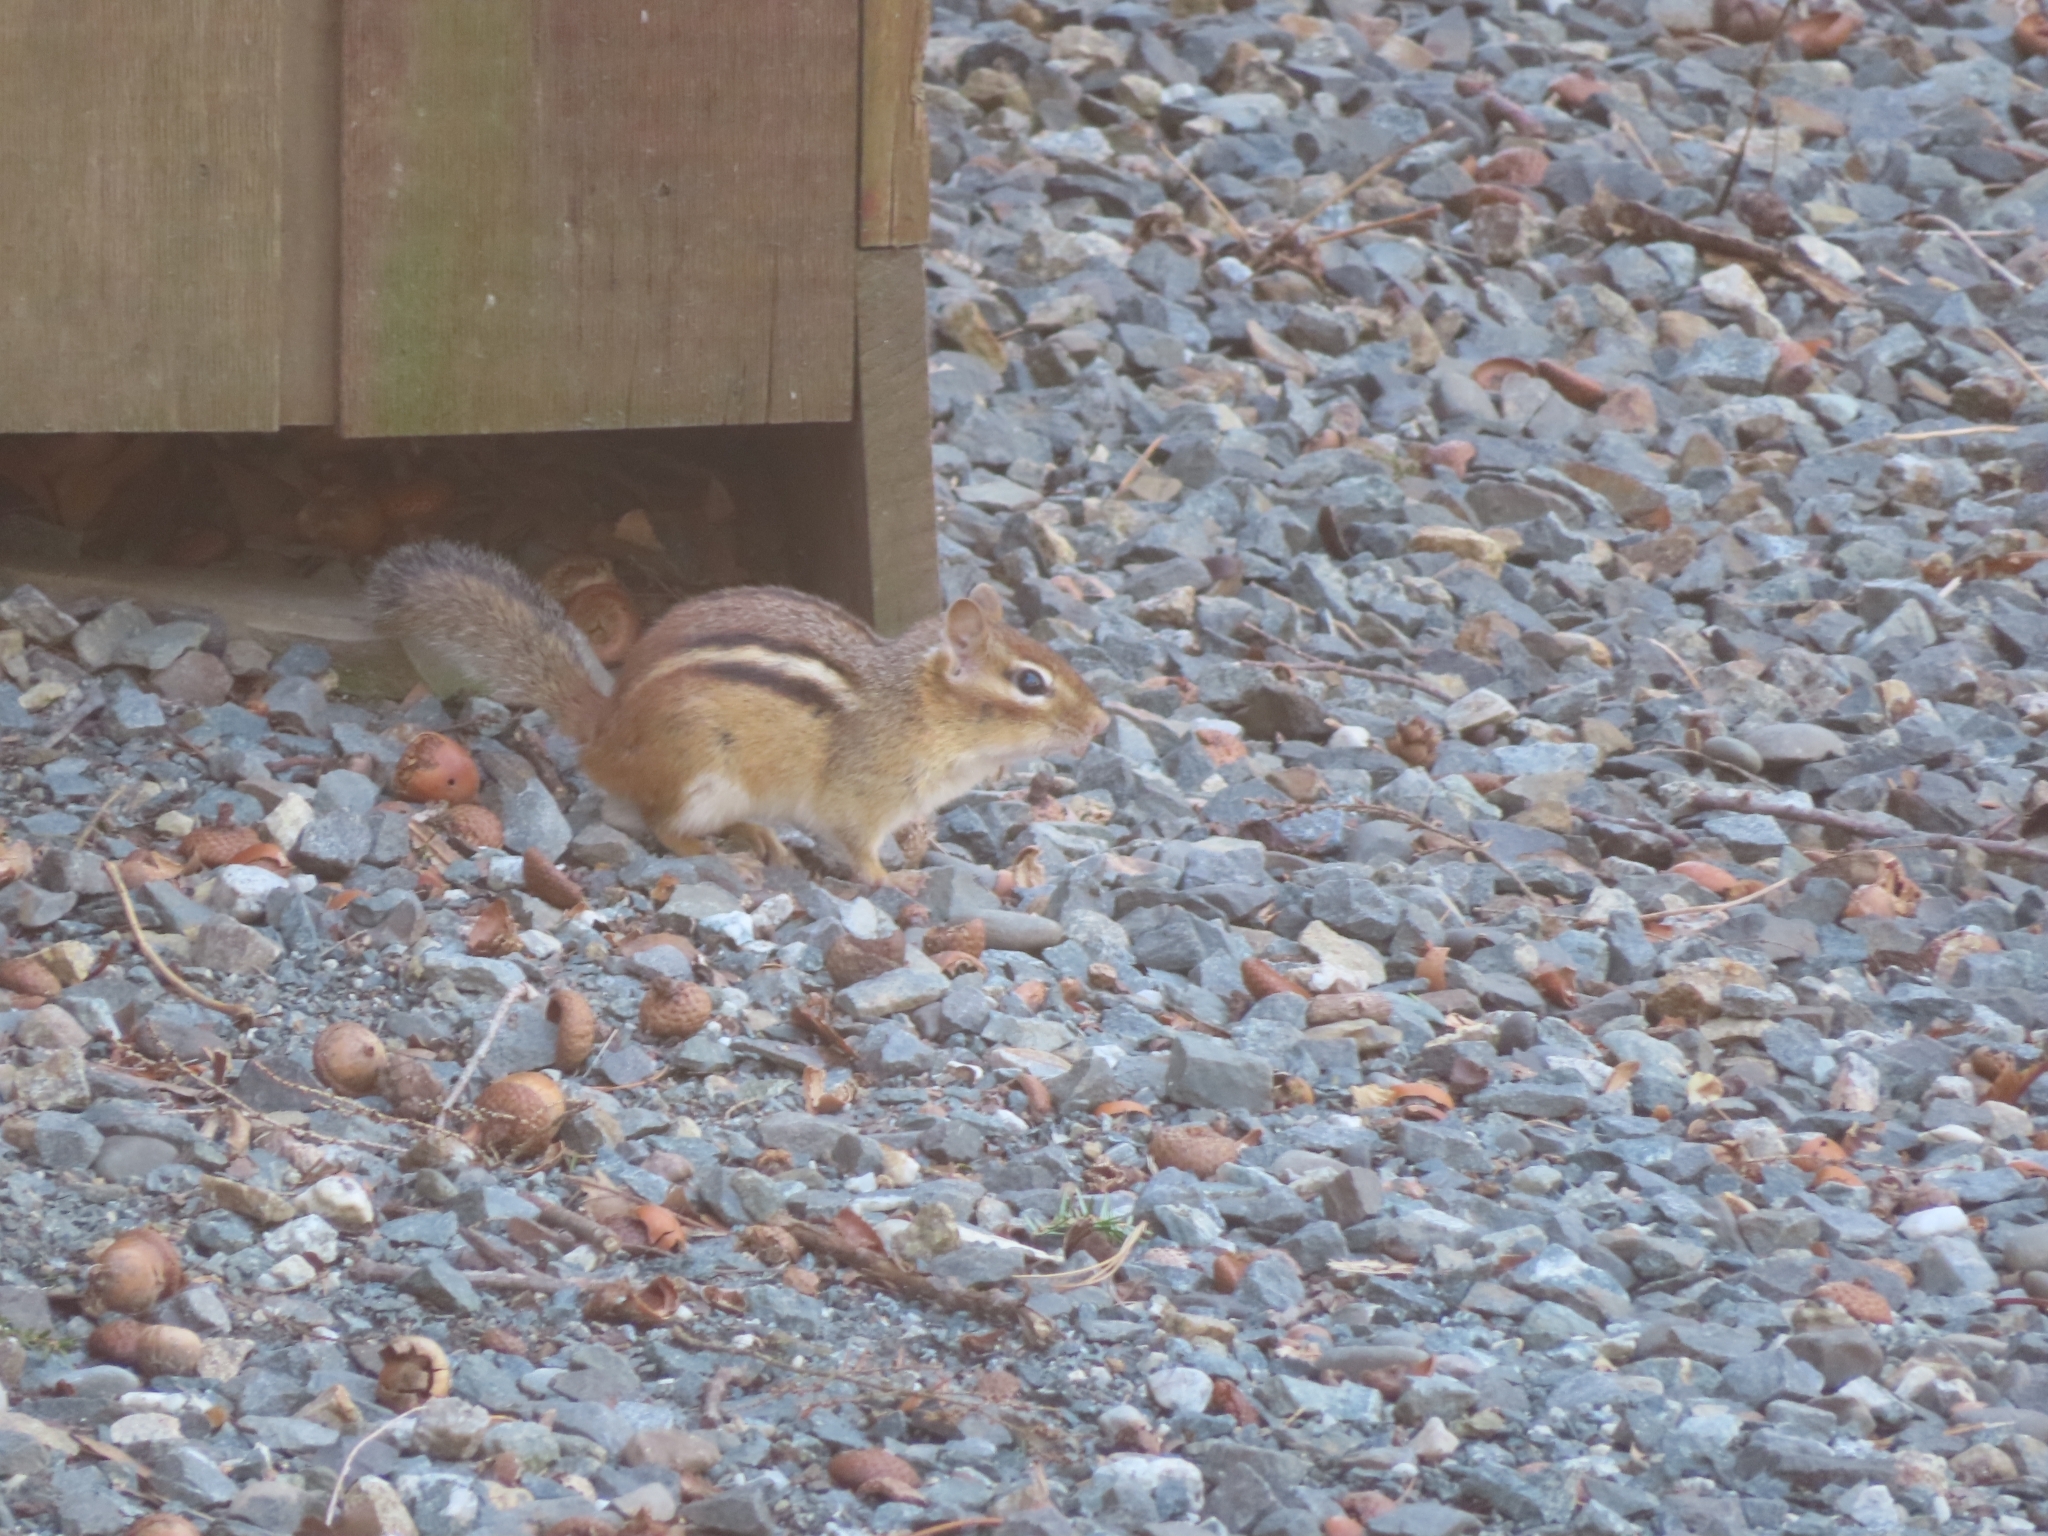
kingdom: Animalia
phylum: Chordata
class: Mammalia
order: Rodentia
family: Sciuridae
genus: Tamias
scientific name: Tamias striatus
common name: Eastern chipmunk
